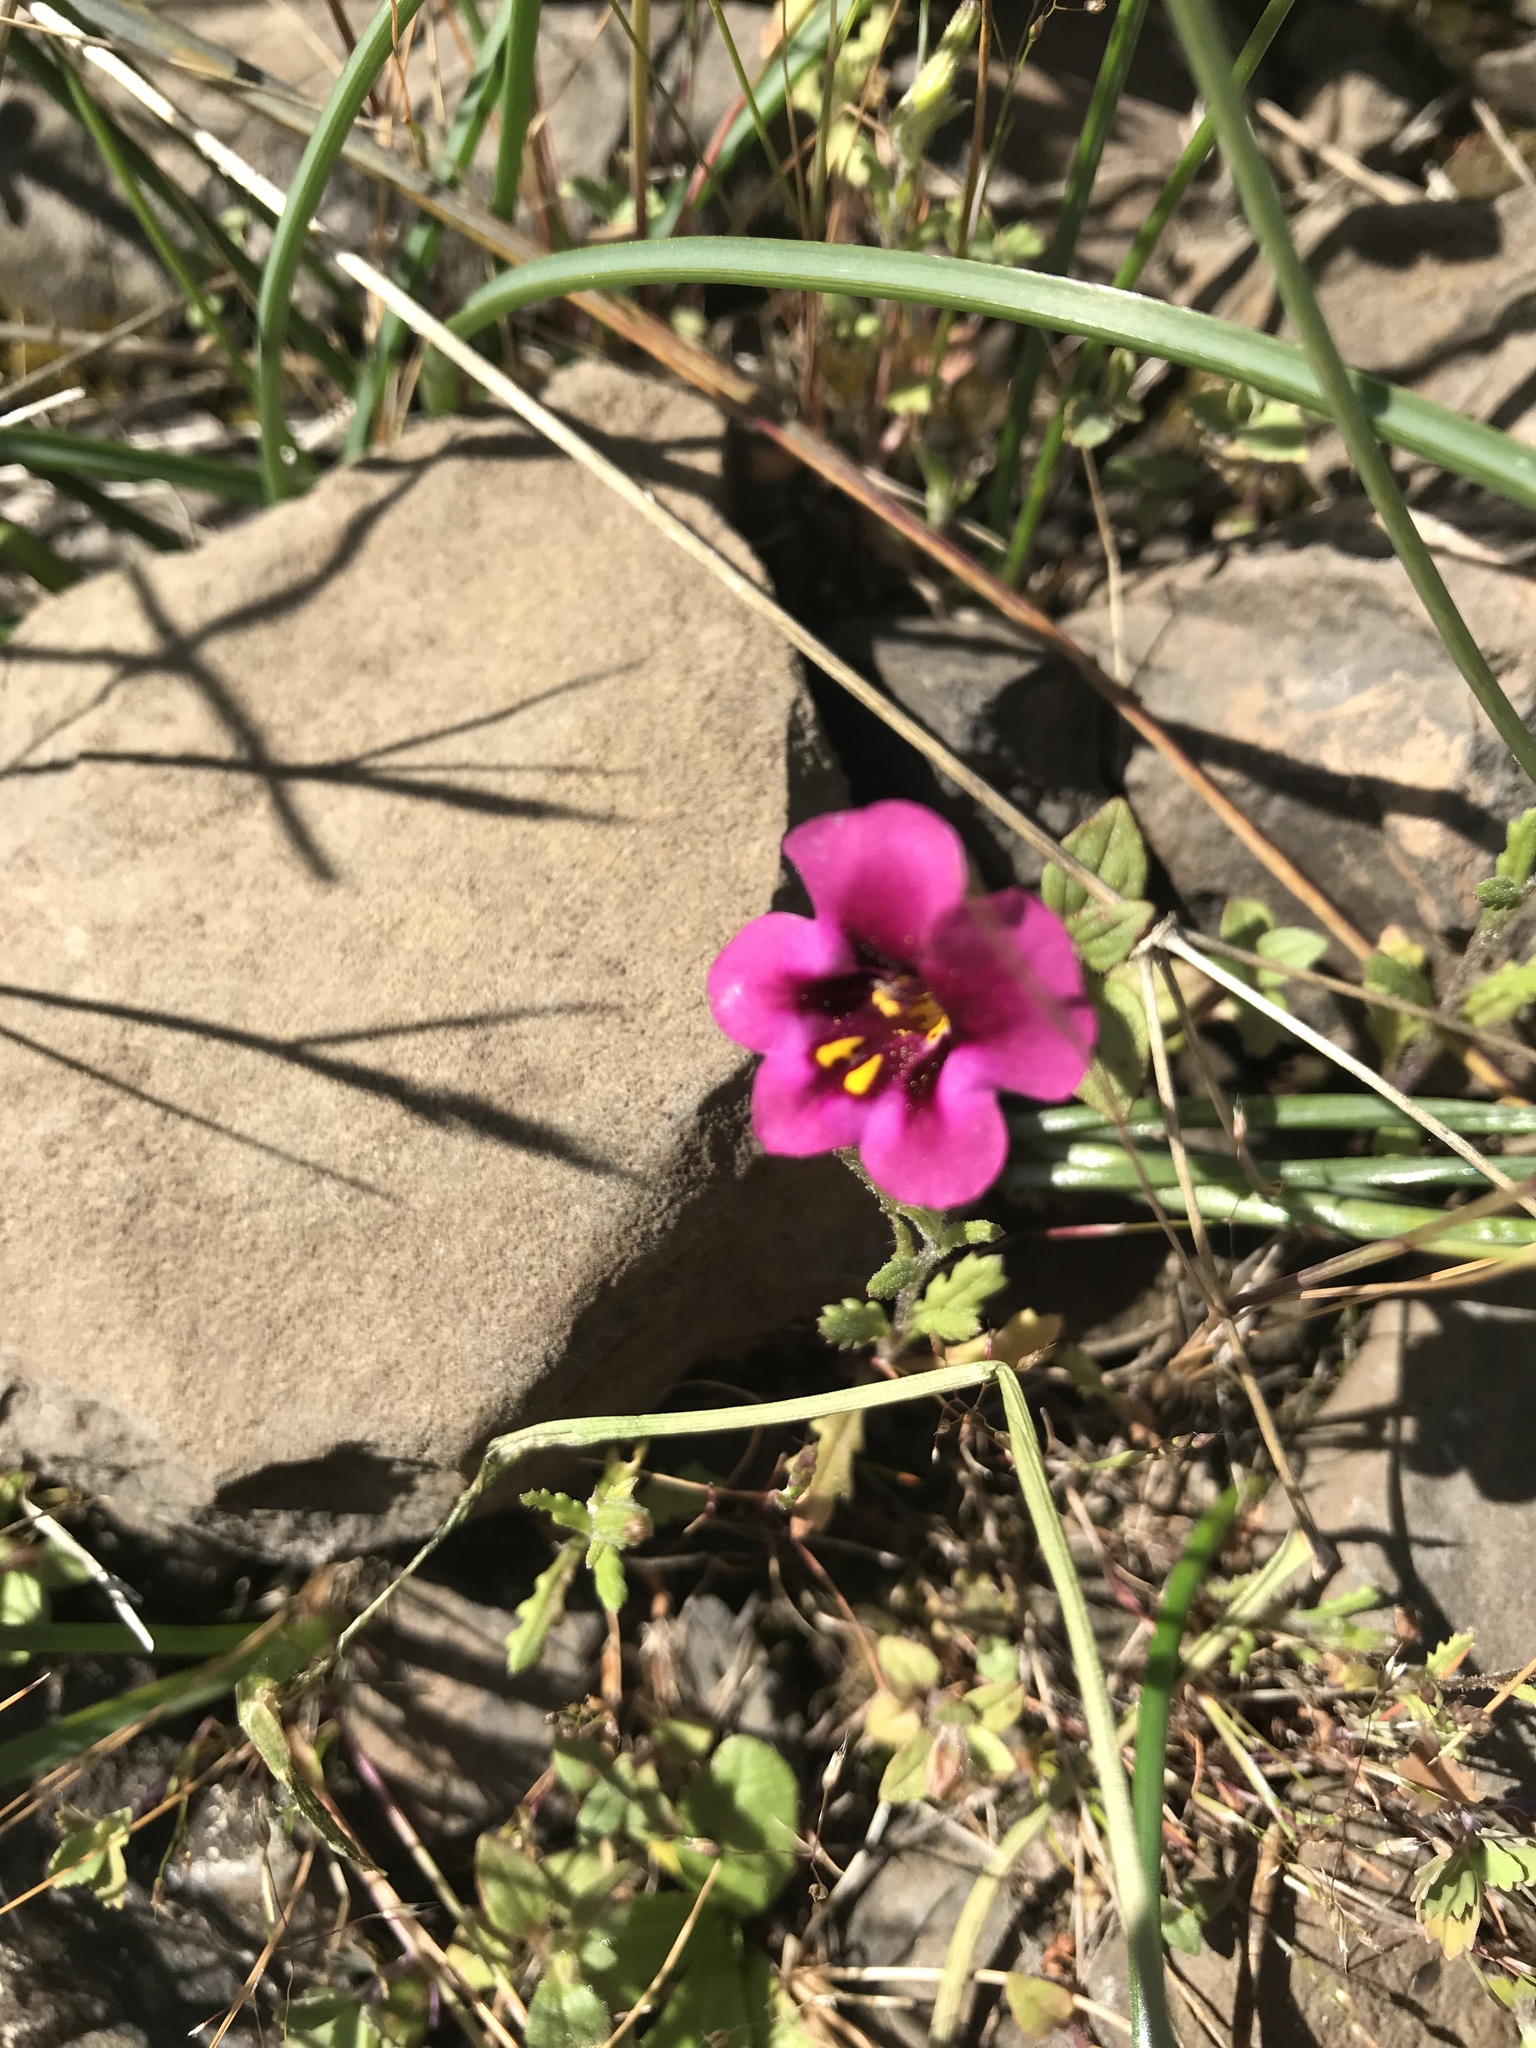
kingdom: Plantae
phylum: Tracheophyta
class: Magnoliopsida
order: Lamiales
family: Phrymaceae
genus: Diplacus
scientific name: Diplacus kelloggii
